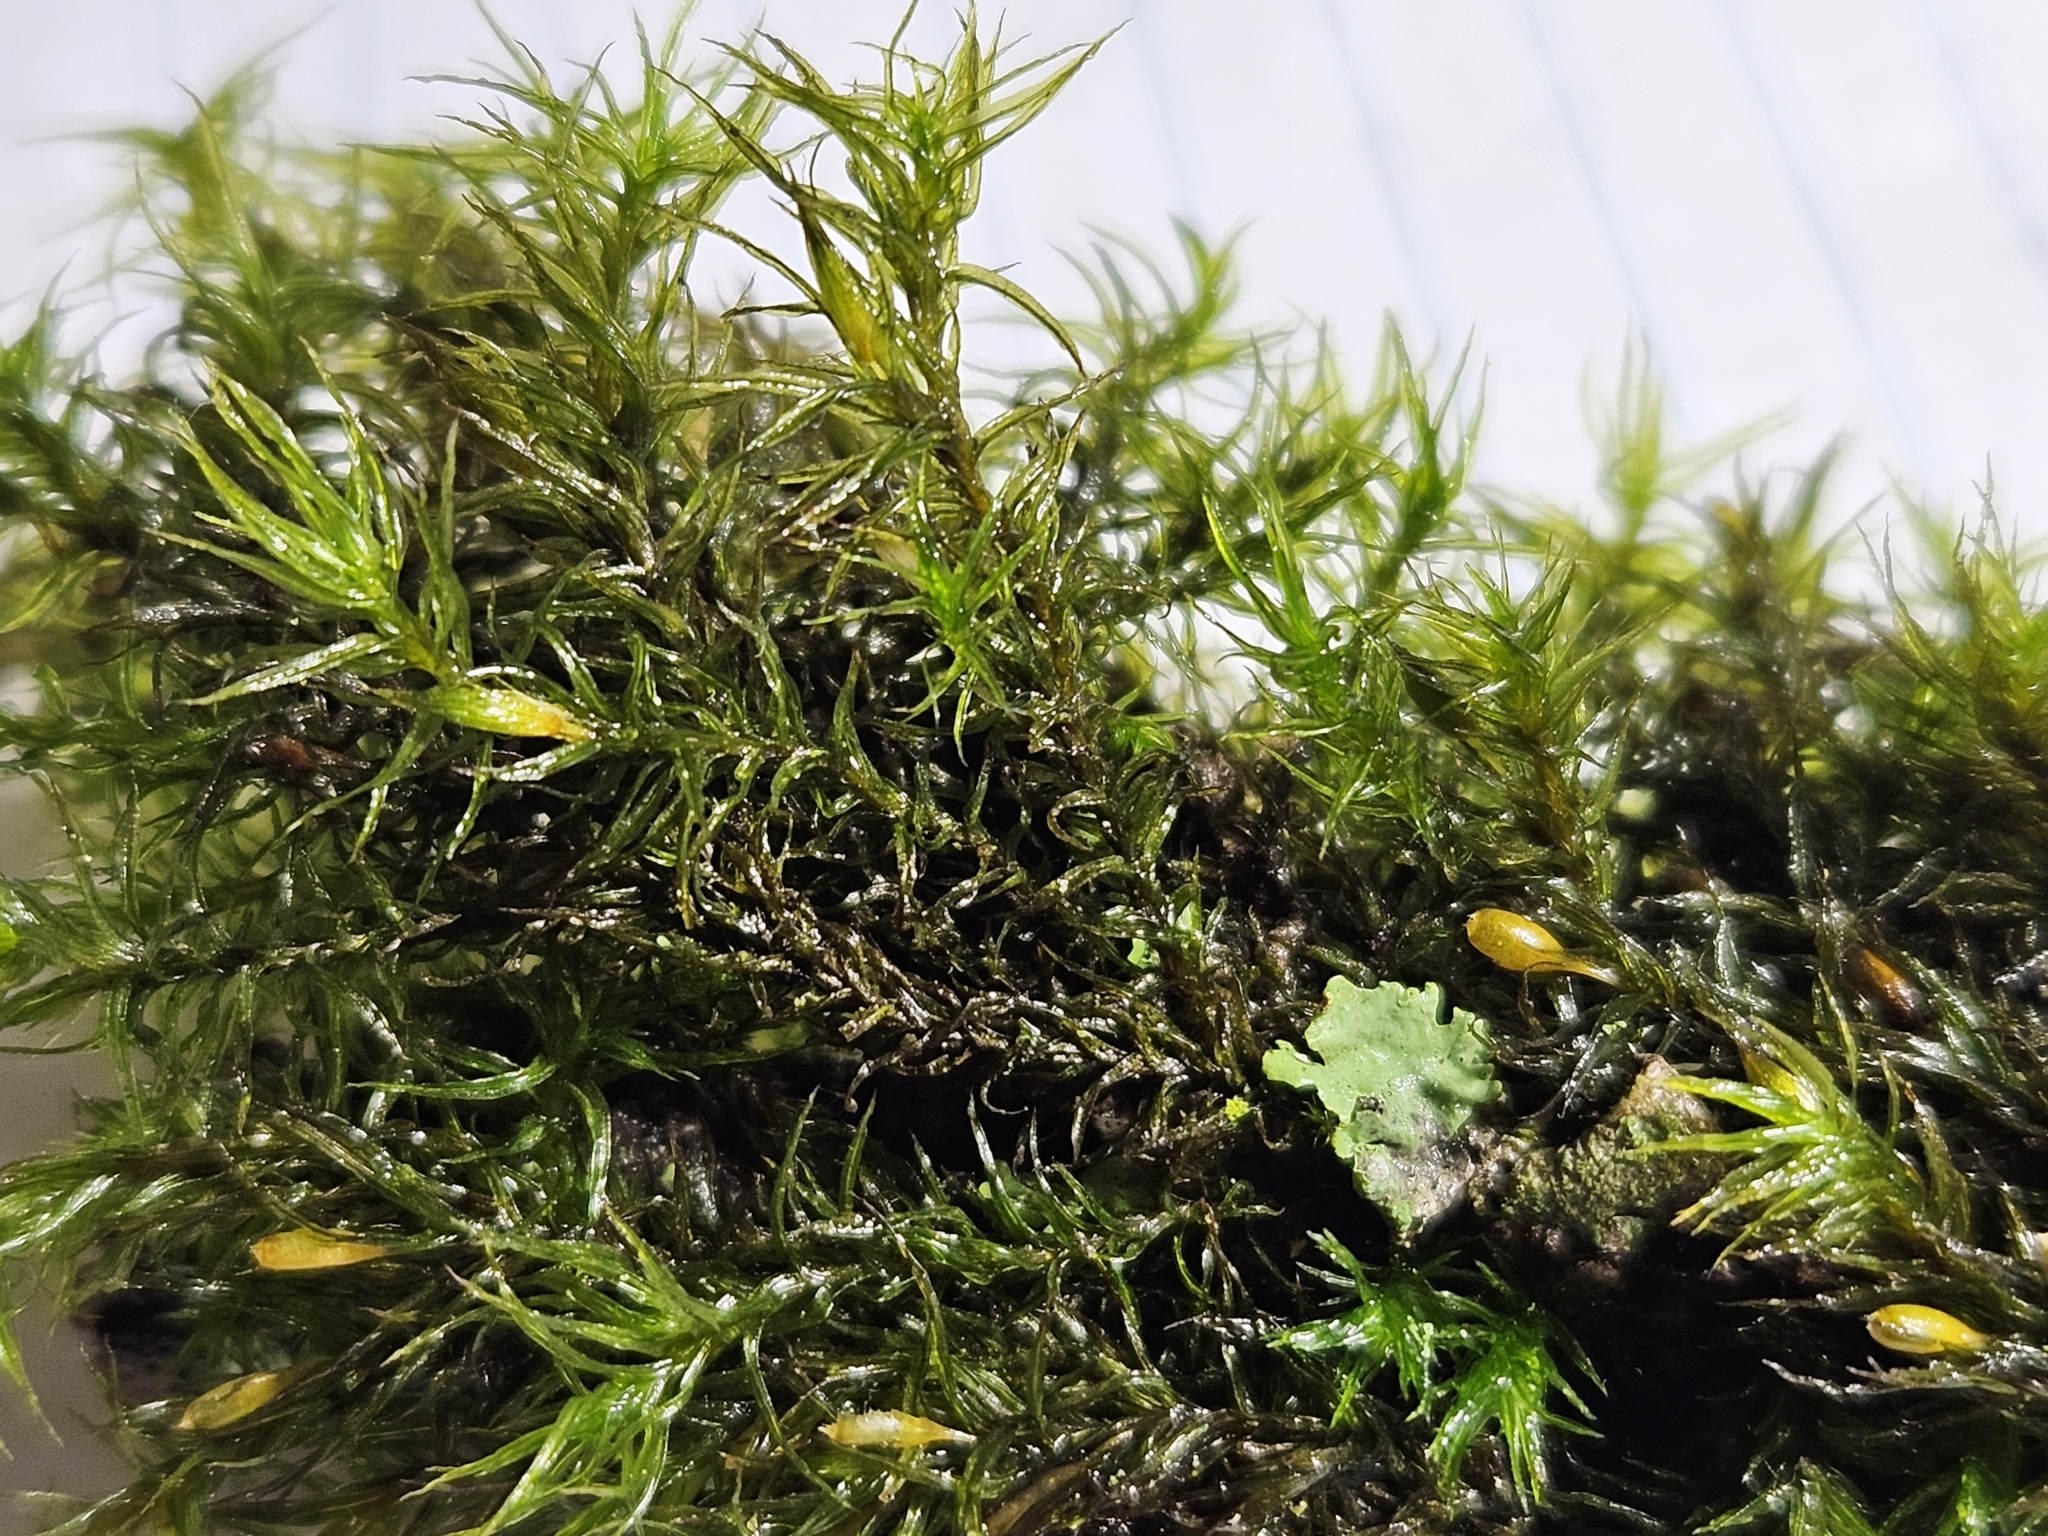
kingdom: Plantae
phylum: Bryophyta
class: Bryopsida
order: Orthotrichales
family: Orthotrichaceae
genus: Pulvigera
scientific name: Pulvigera papillosa
